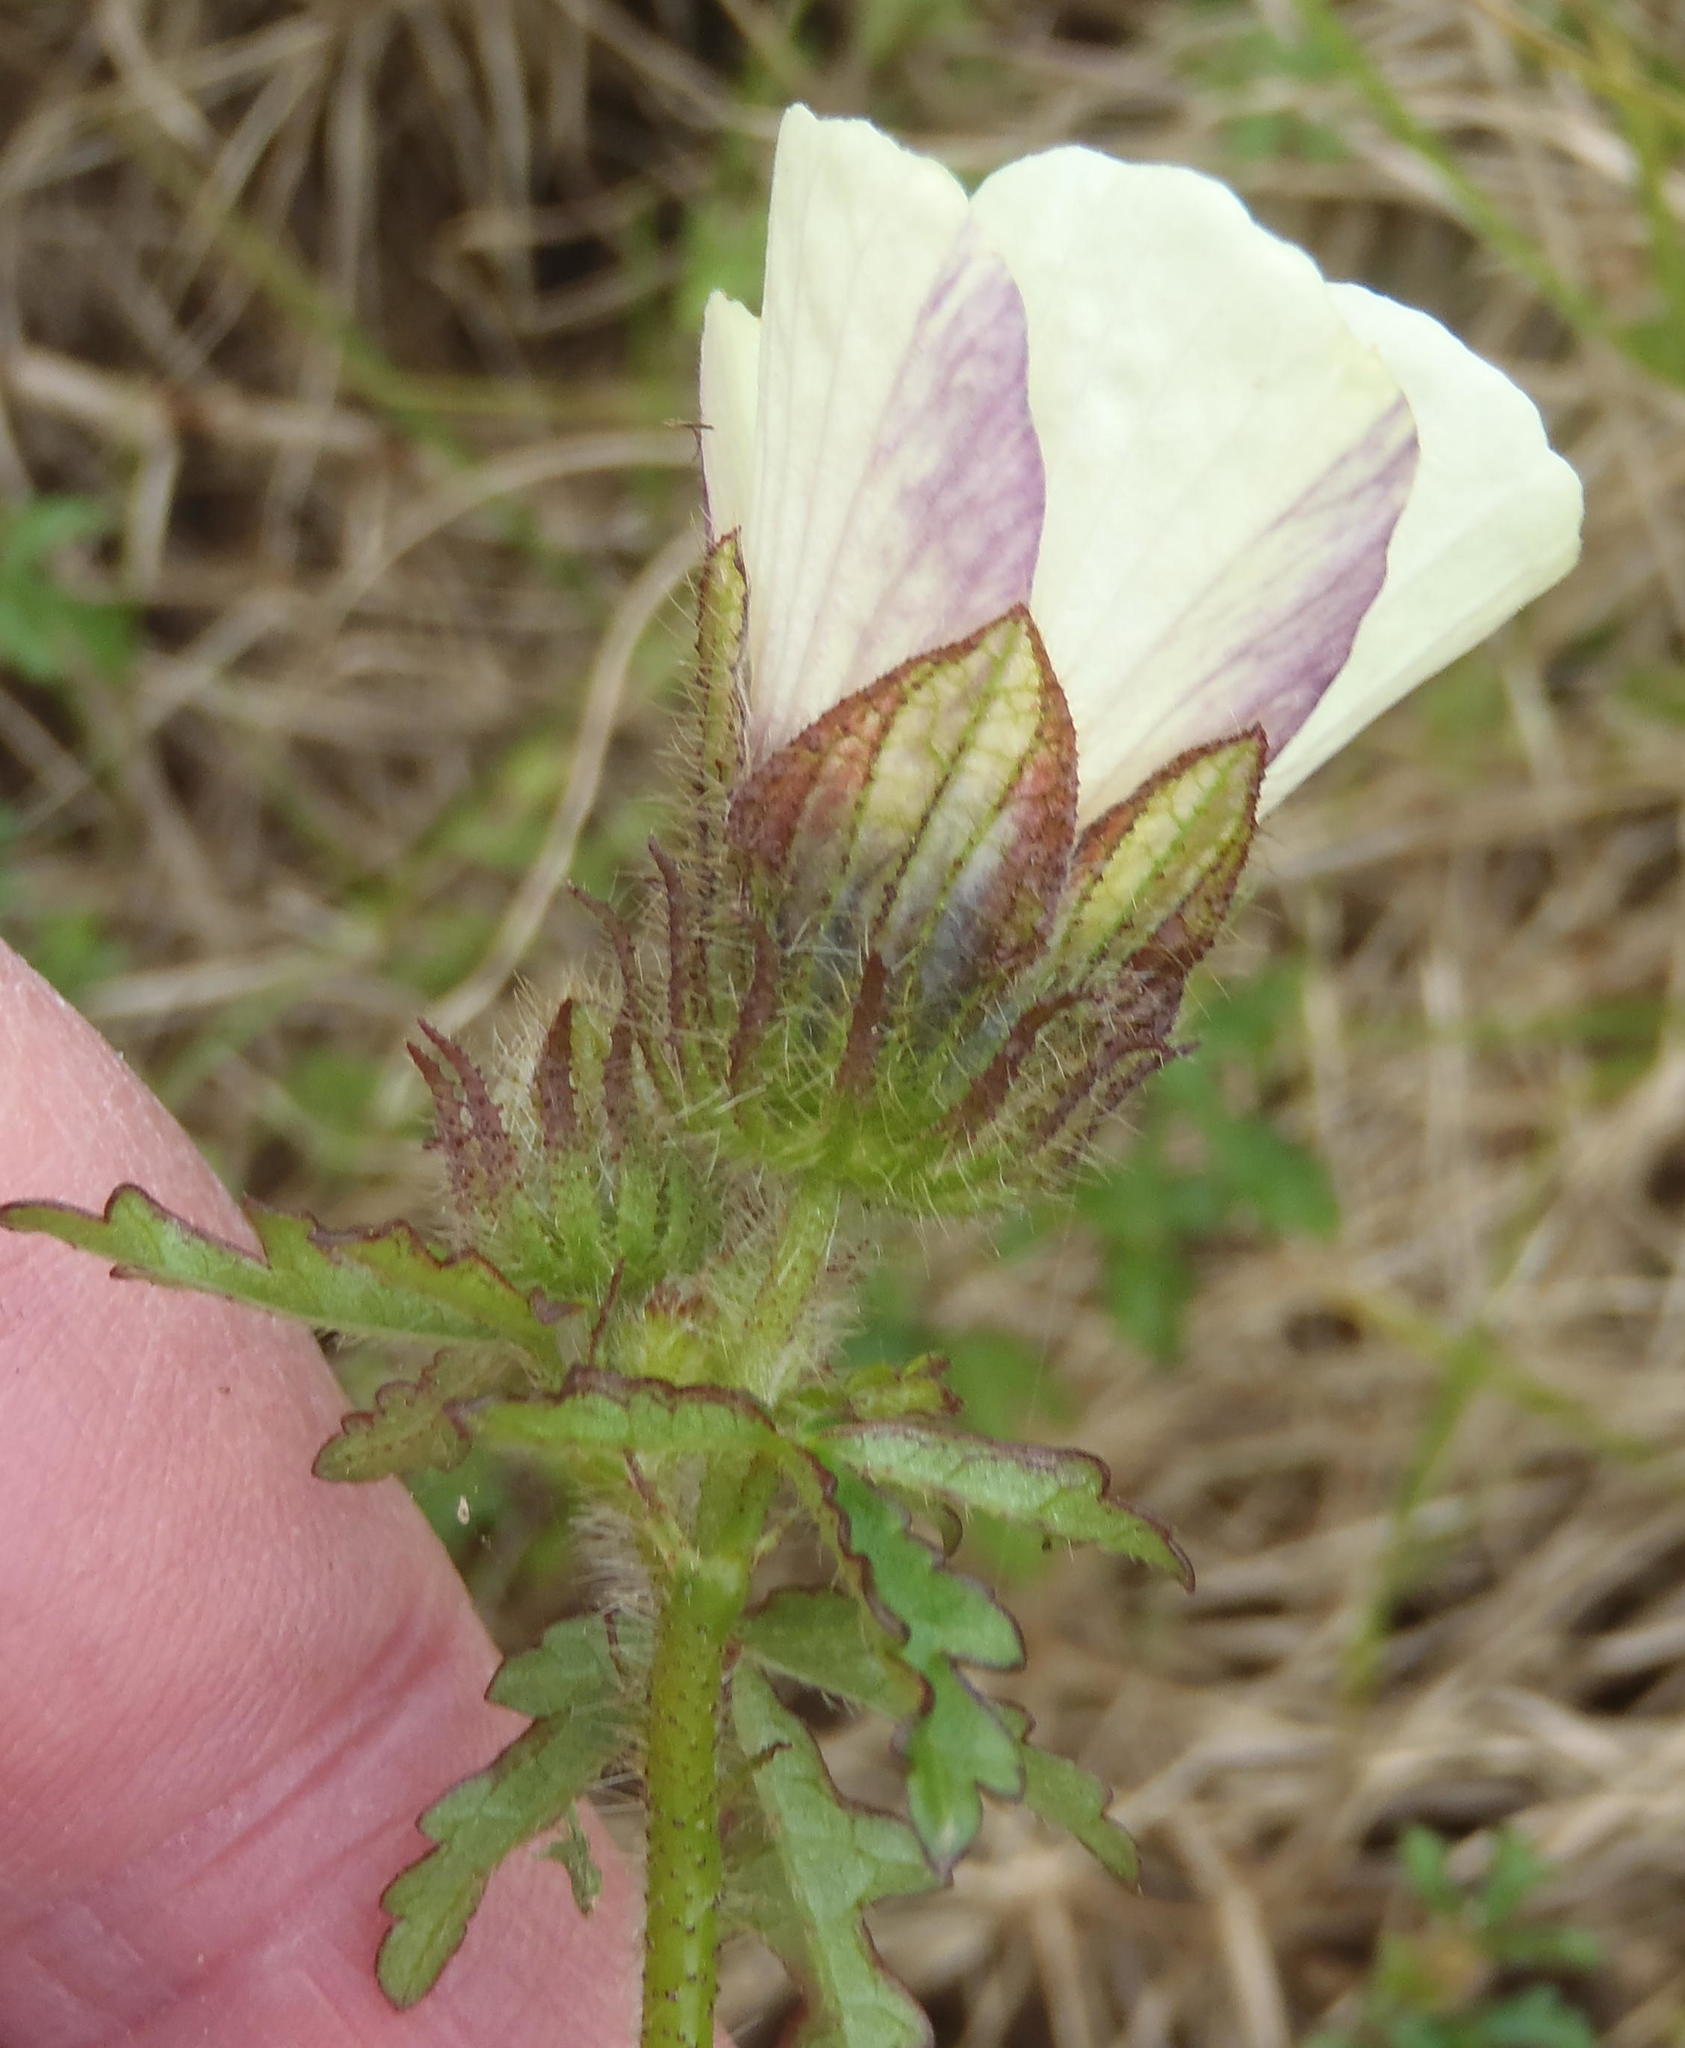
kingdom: Plantae
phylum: Tracheophyta
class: Magnoliopsida
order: Malvales
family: Malvaceae
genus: Hibiscus
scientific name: Hibiscus trionum
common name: Bladder ketmia
